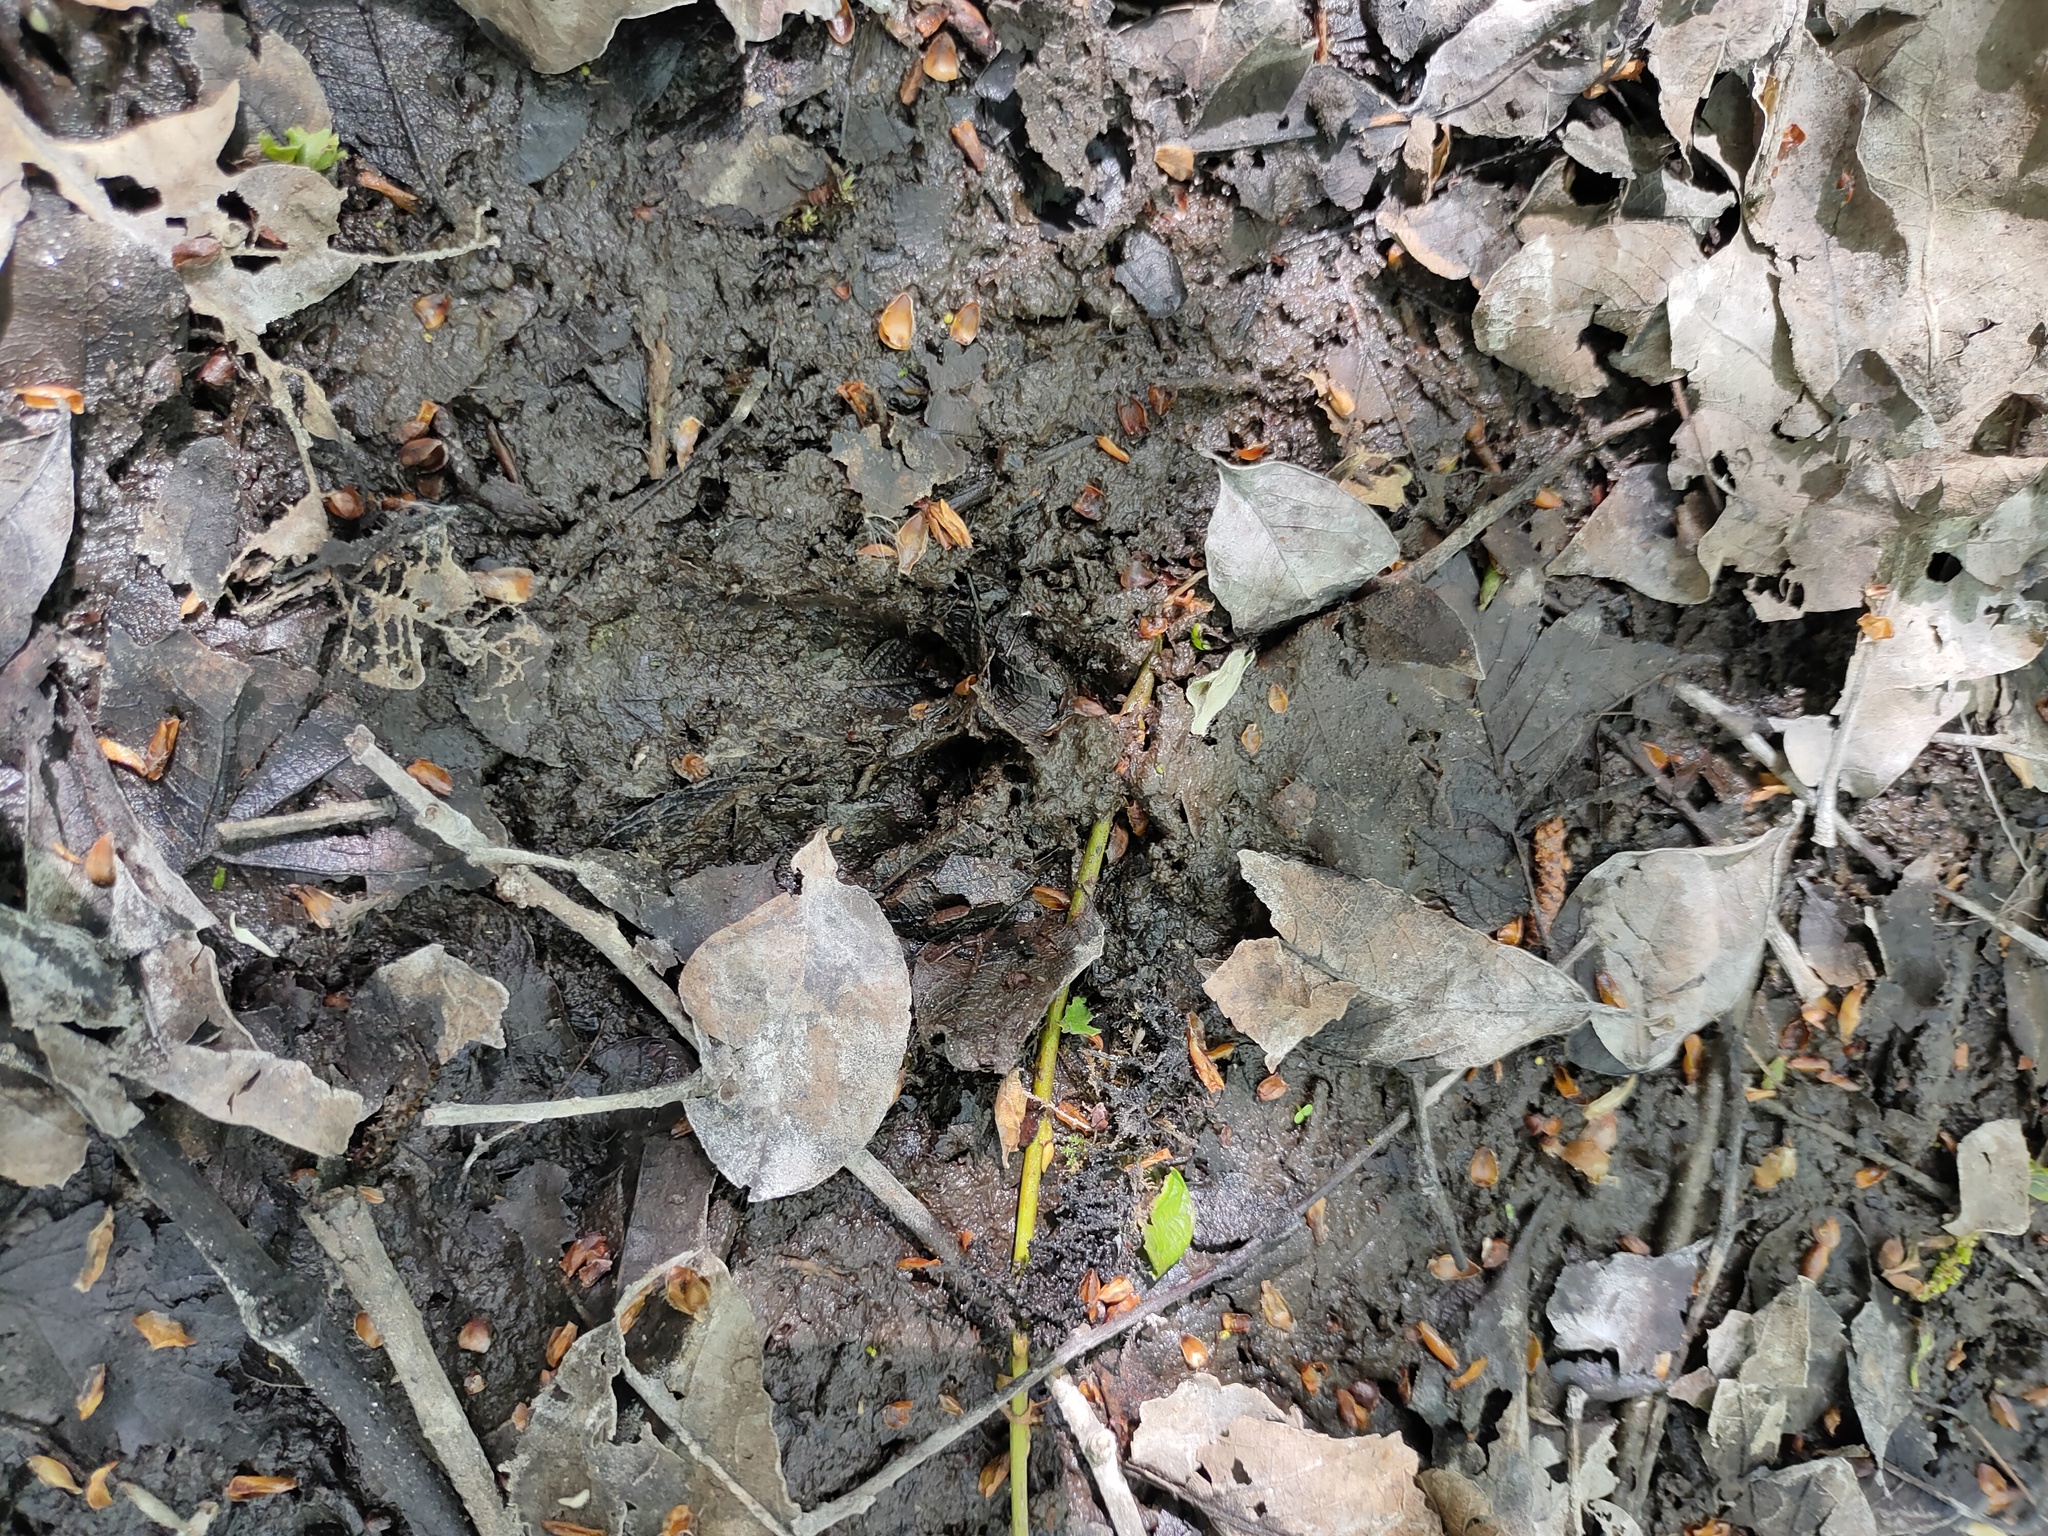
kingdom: Animalia
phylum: Chordata
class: Mammalia
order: Artiodactyla
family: Cervidae
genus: Capreolus
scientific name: Capreolus capreolus
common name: Western roe deer
